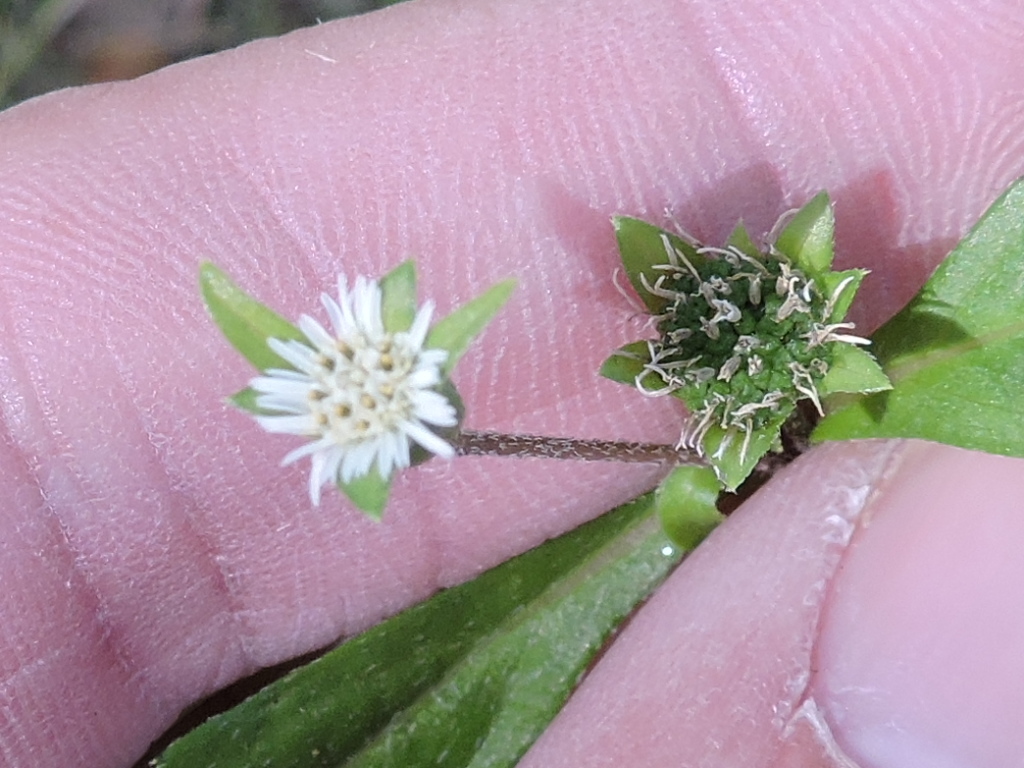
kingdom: Plantae
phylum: Tracheophyta
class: Magnoliopsida
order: Asterales
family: Asteraceae
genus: Eclipta
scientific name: Eclipta prostrata
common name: False daisy
